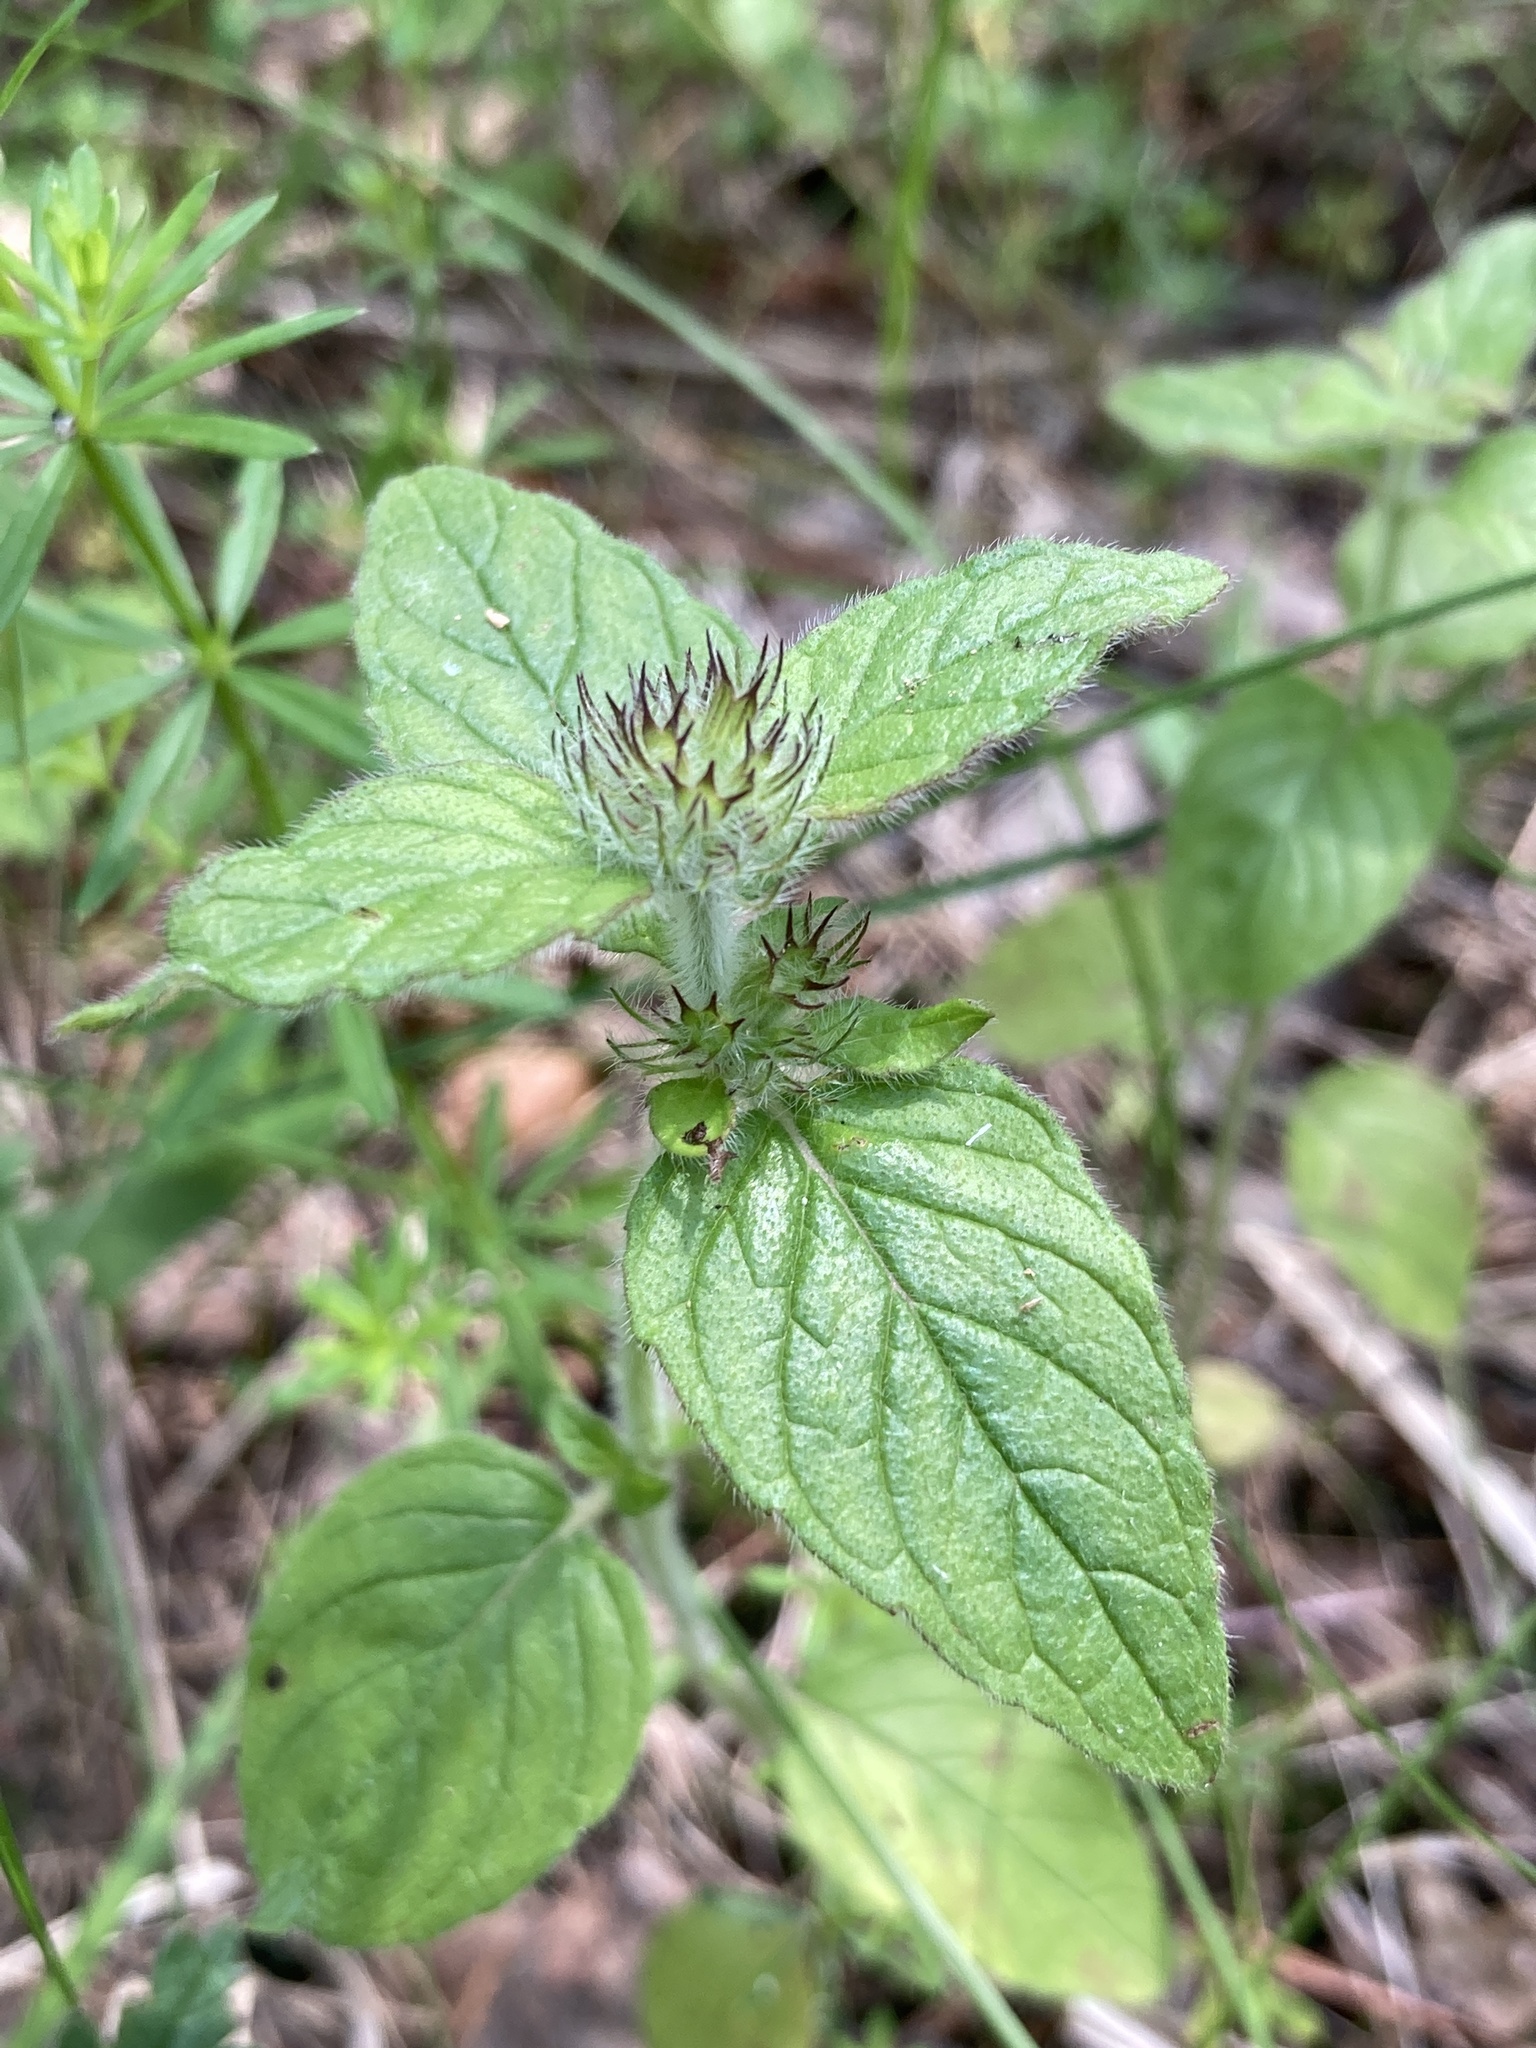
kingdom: Plantae
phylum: Tracheophyta
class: Magnoliopsida
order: Lamiales
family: Lamiaceae
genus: Clinopodium
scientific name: Clinopodium vulgare
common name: Wild basil
